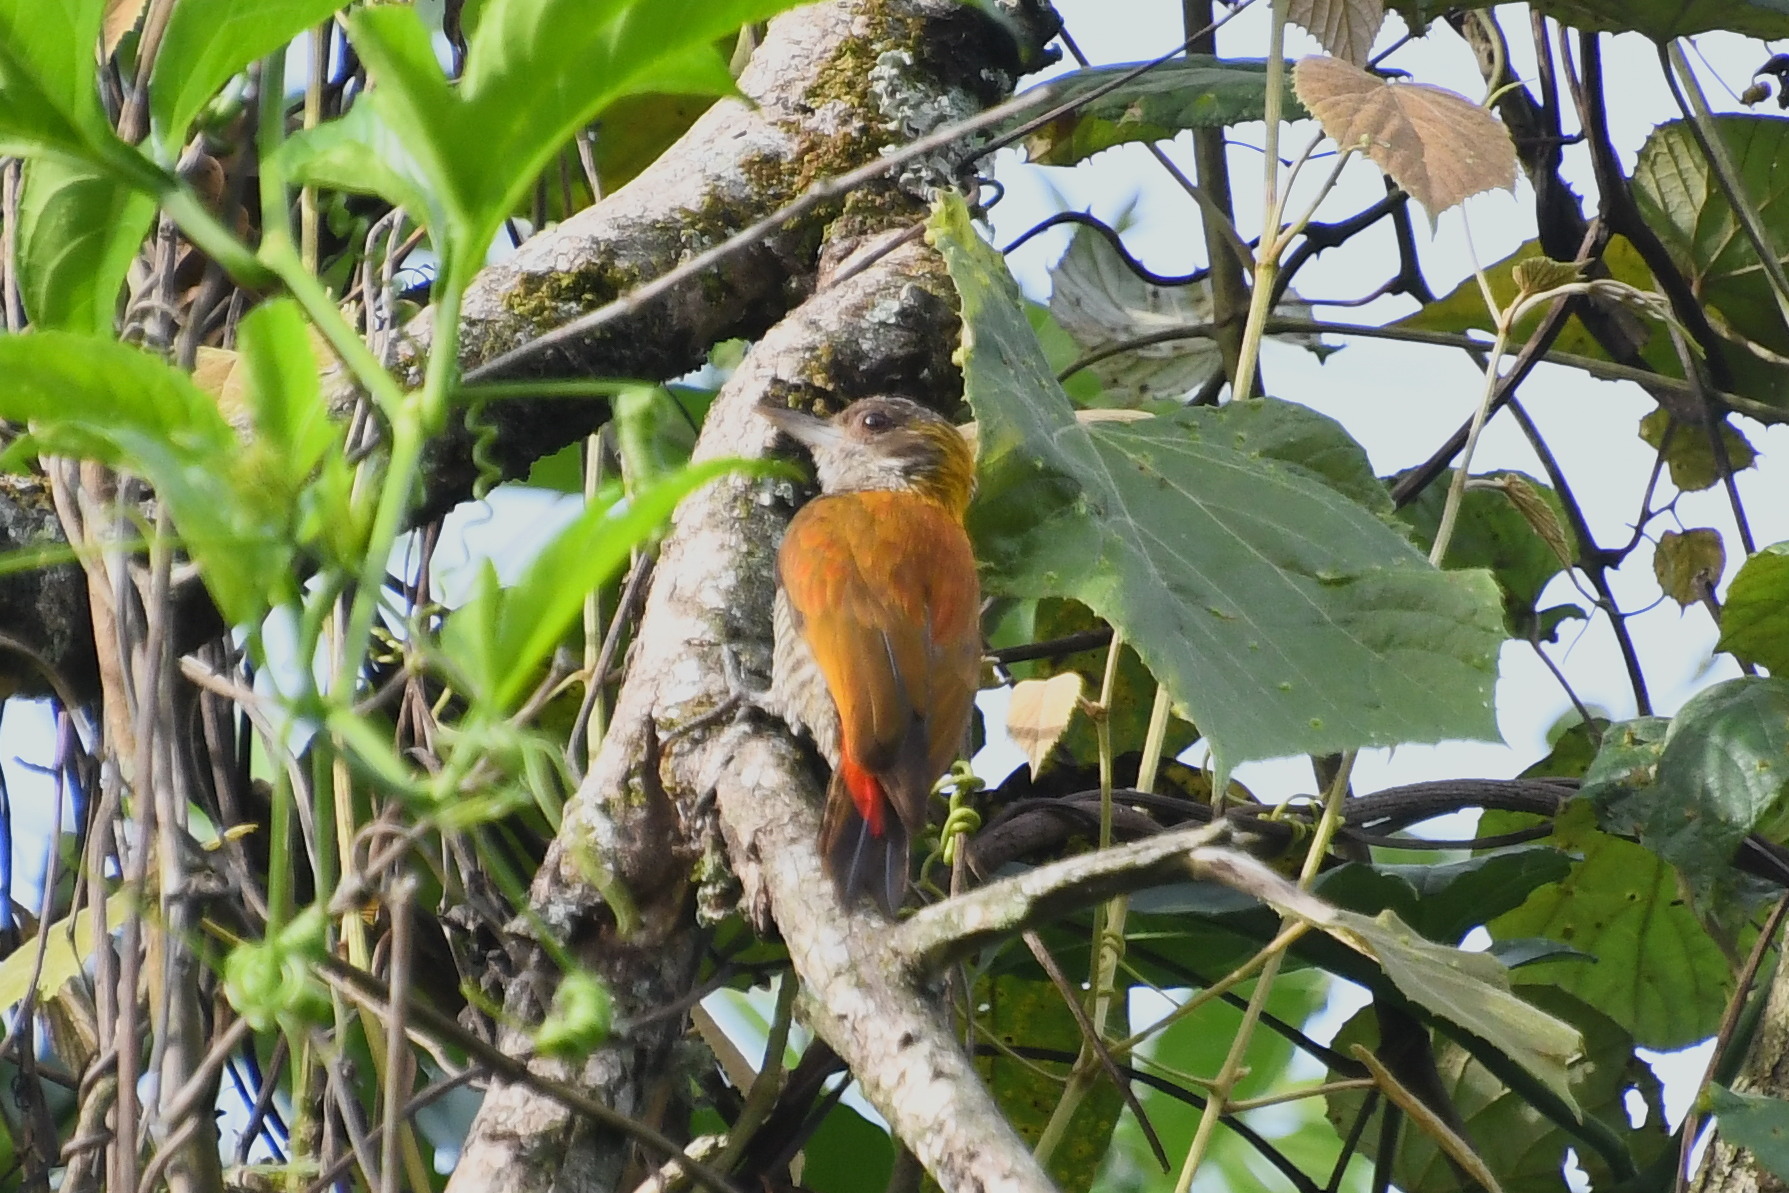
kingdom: Animalia
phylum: Chordata
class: Aves
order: Piciformes
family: Picidae
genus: Veniliornis
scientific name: Veniliornis kirkii
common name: Red-rumped woodpecker
